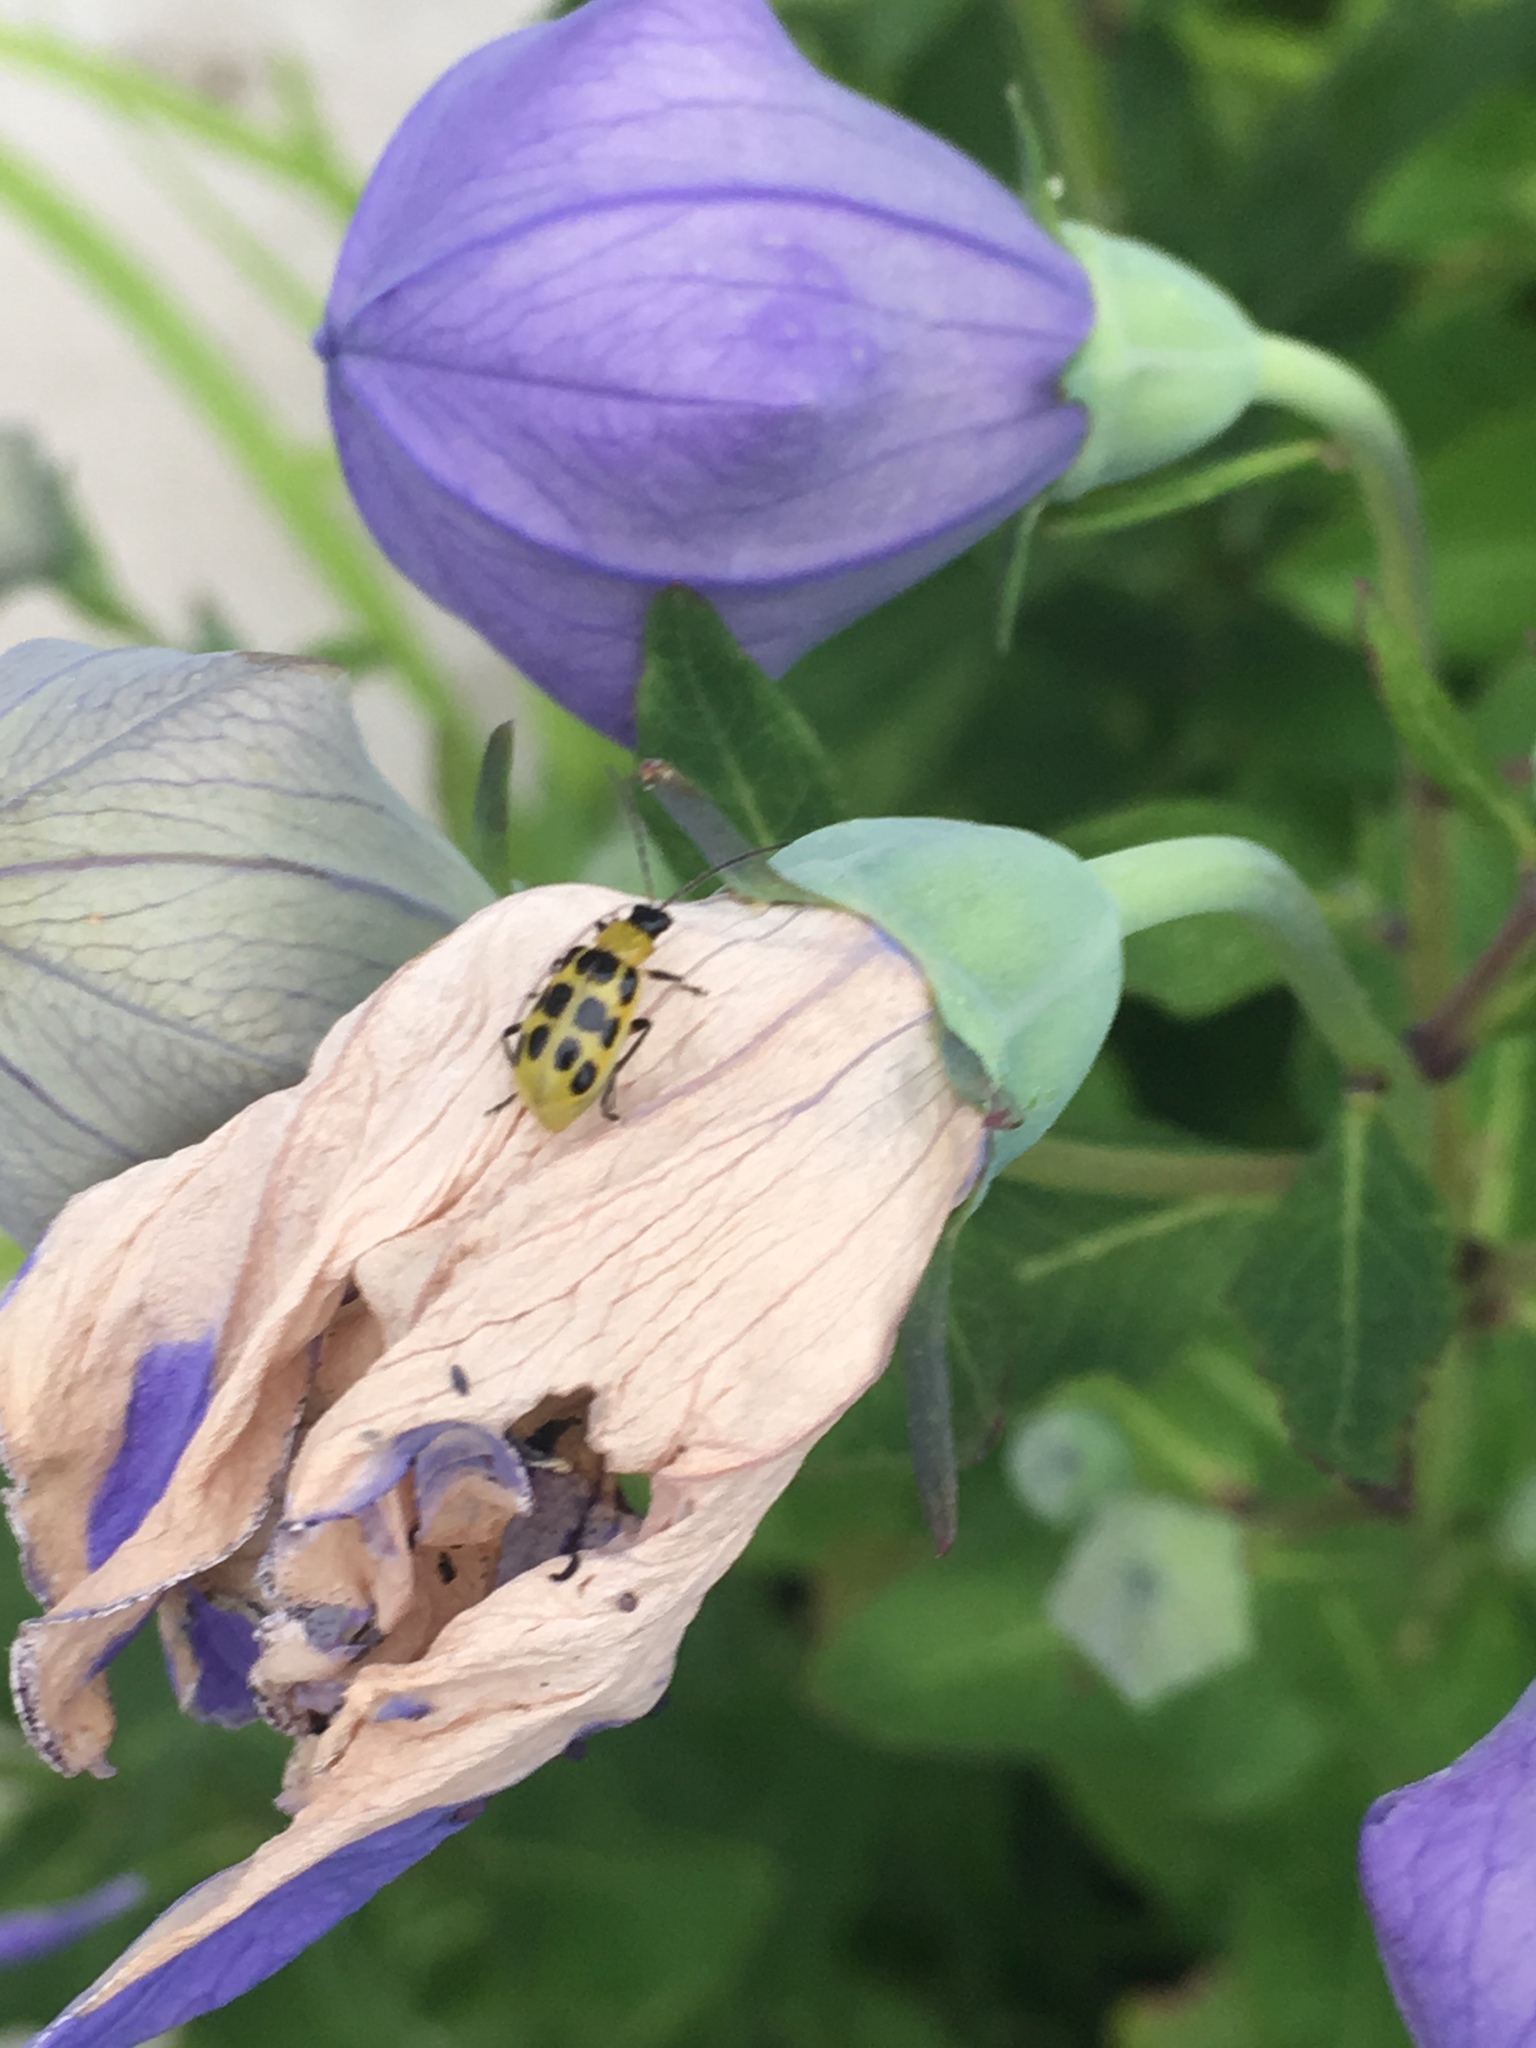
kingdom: Animalia
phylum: Arthropoda
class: Insecta
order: Coleoptera
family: Chrysomelidae
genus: Diabrotica
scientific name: Diabrotica undecimpunctata
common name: Spotted cucumber beetle
